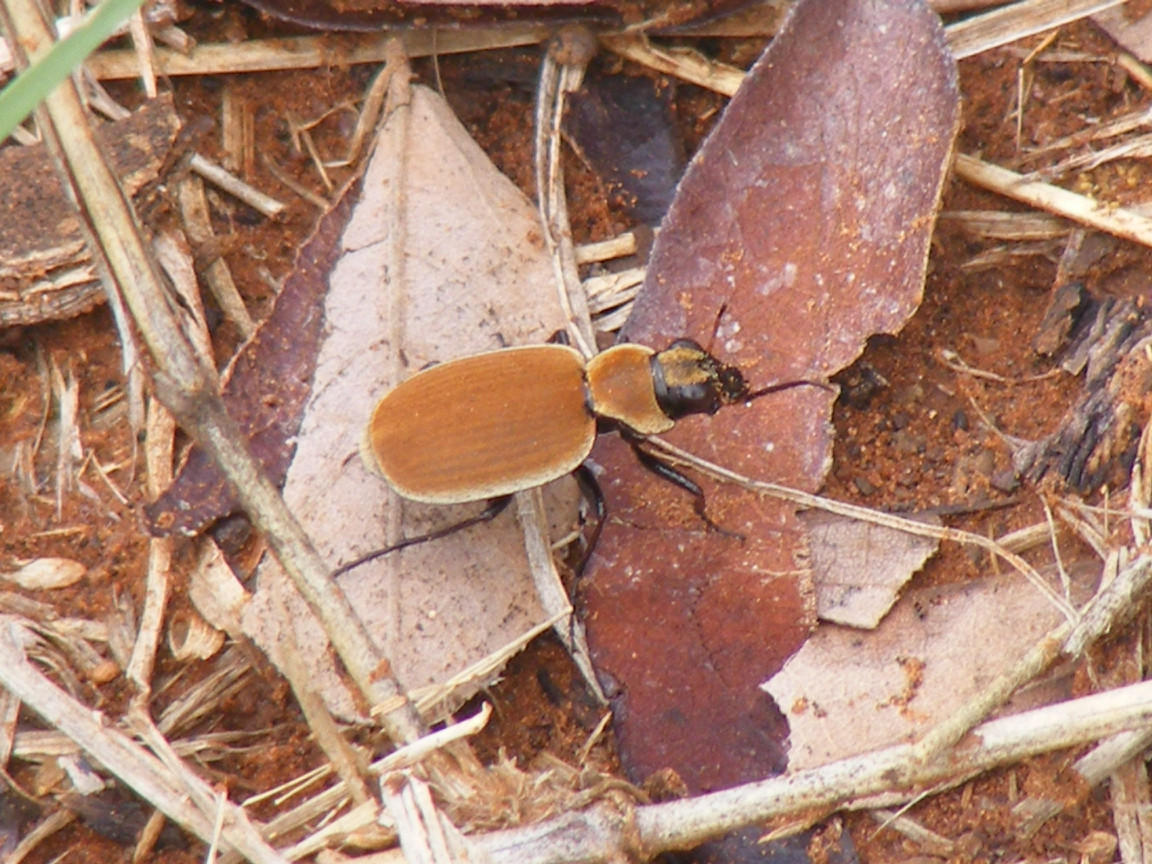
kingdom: Animalia
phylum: Arthropoda
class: Insecta
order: Coleoptera
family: Carabidae
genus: Graphipterus
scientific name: Graphipterus lateralis
